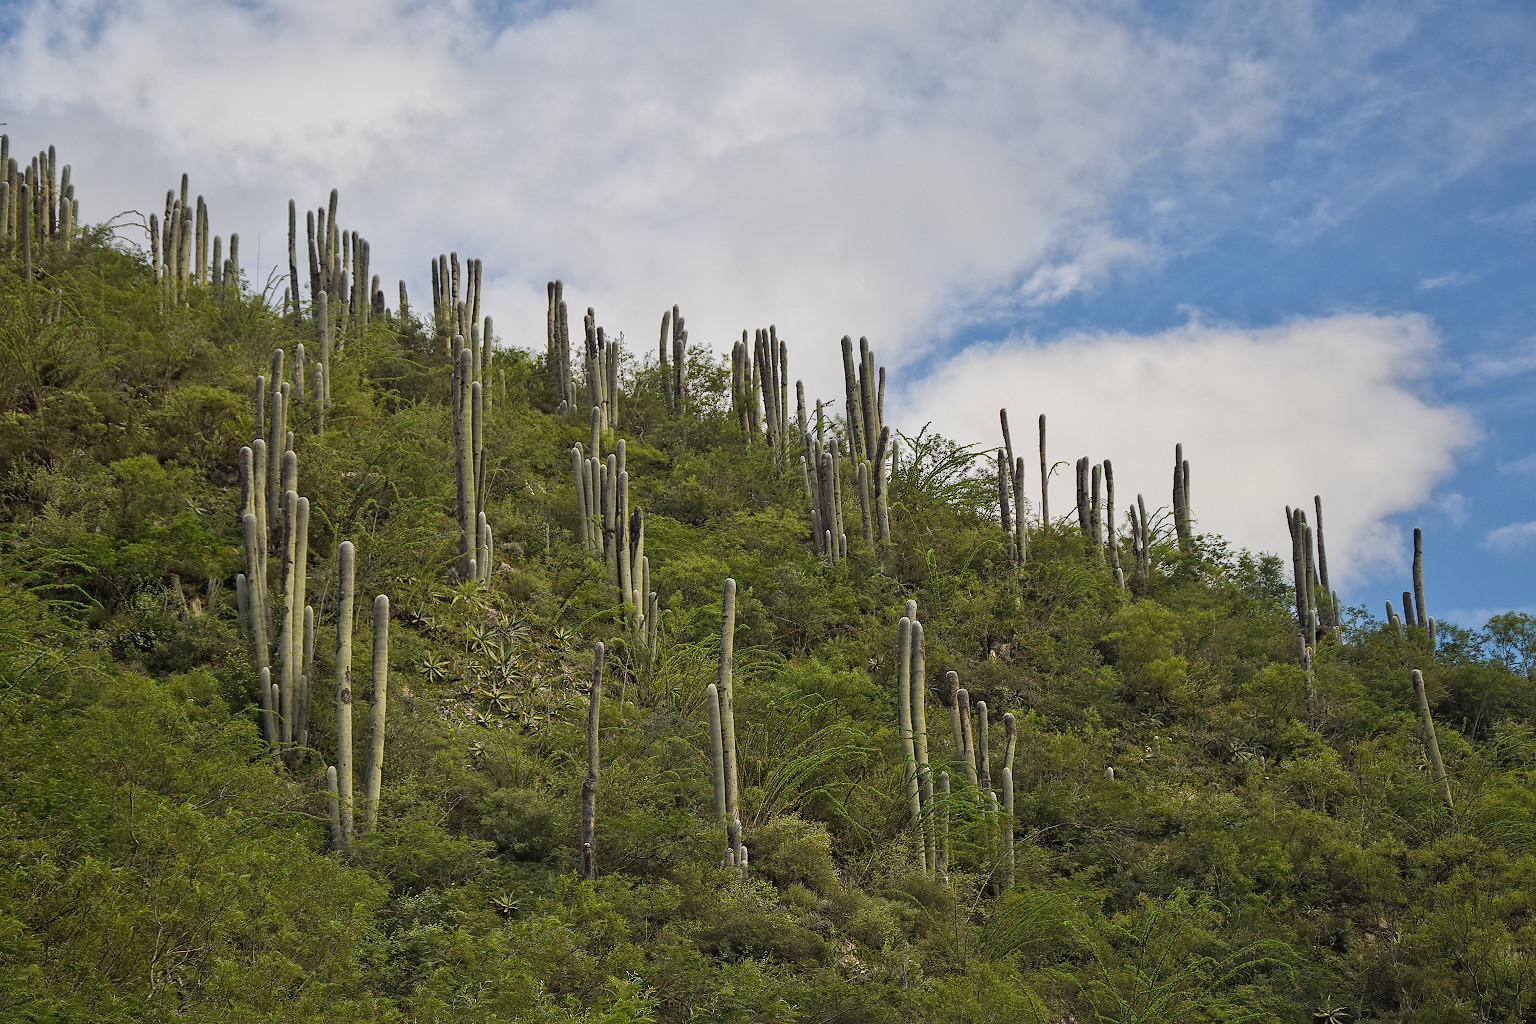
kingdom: Plantae
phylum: Tracheophyta
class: Magnoliopsida
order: Caryophyllales
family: Cactaceae
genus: Cephalocereus
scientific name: Cephalocereus senilis
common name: Old man cactus
